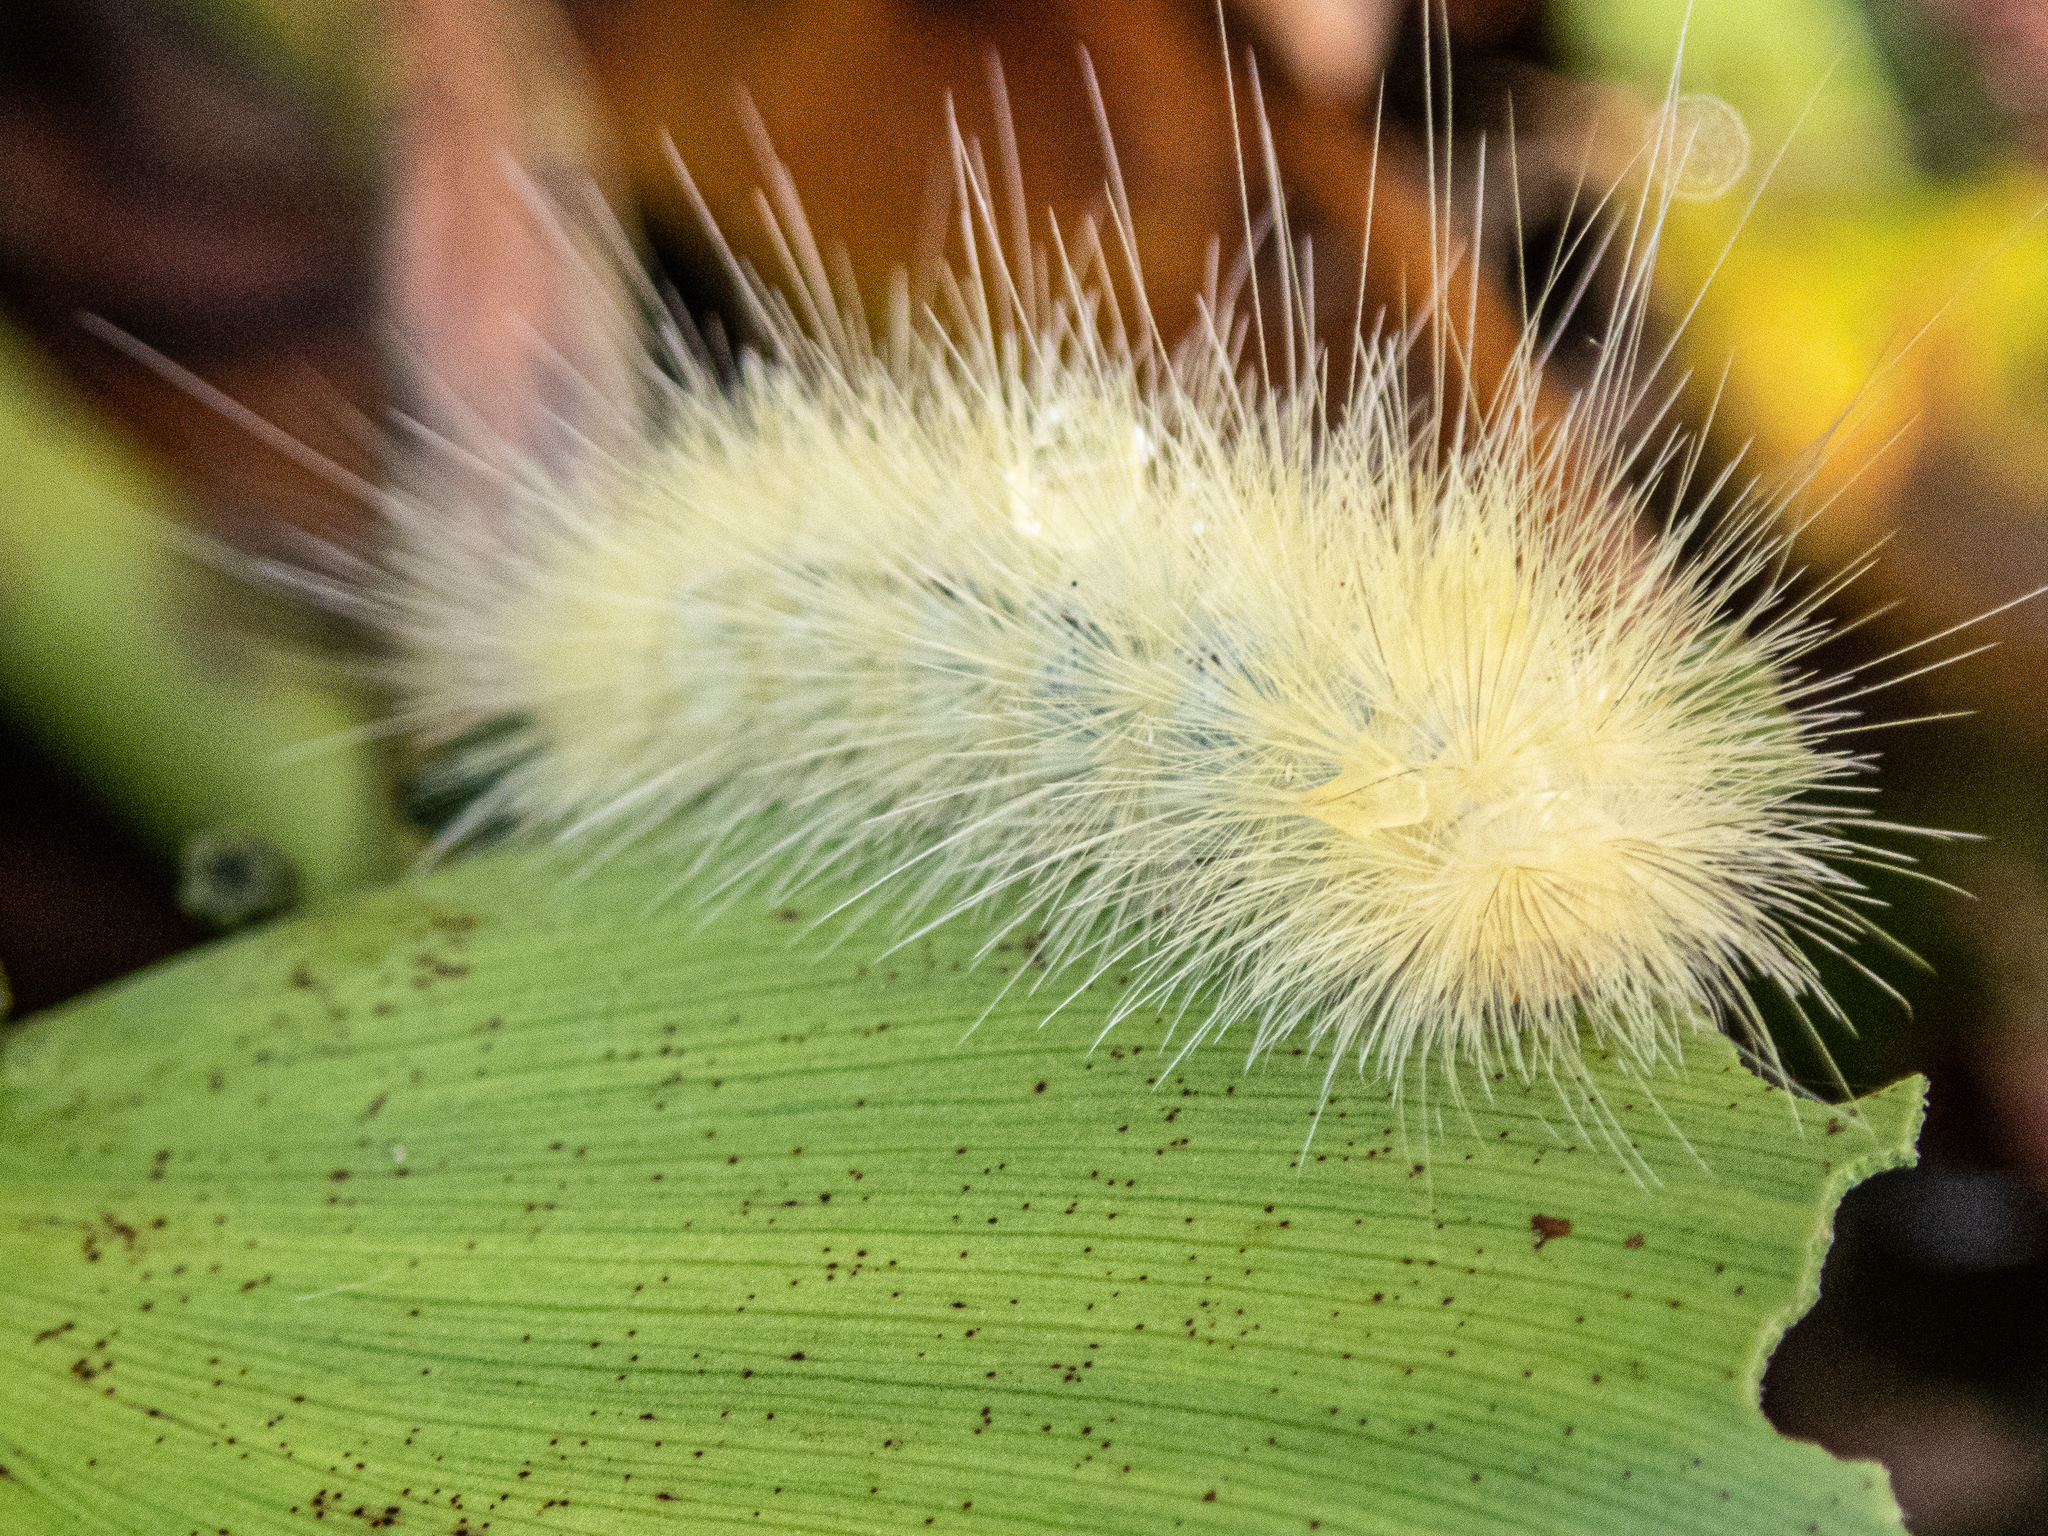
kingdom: Animalia
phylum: Arthropoda
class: Insecta
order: Lepidoptera
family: Erebidae
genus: Spilosoma
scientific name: Spilosoma virginica
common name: Virginia tiger moth
